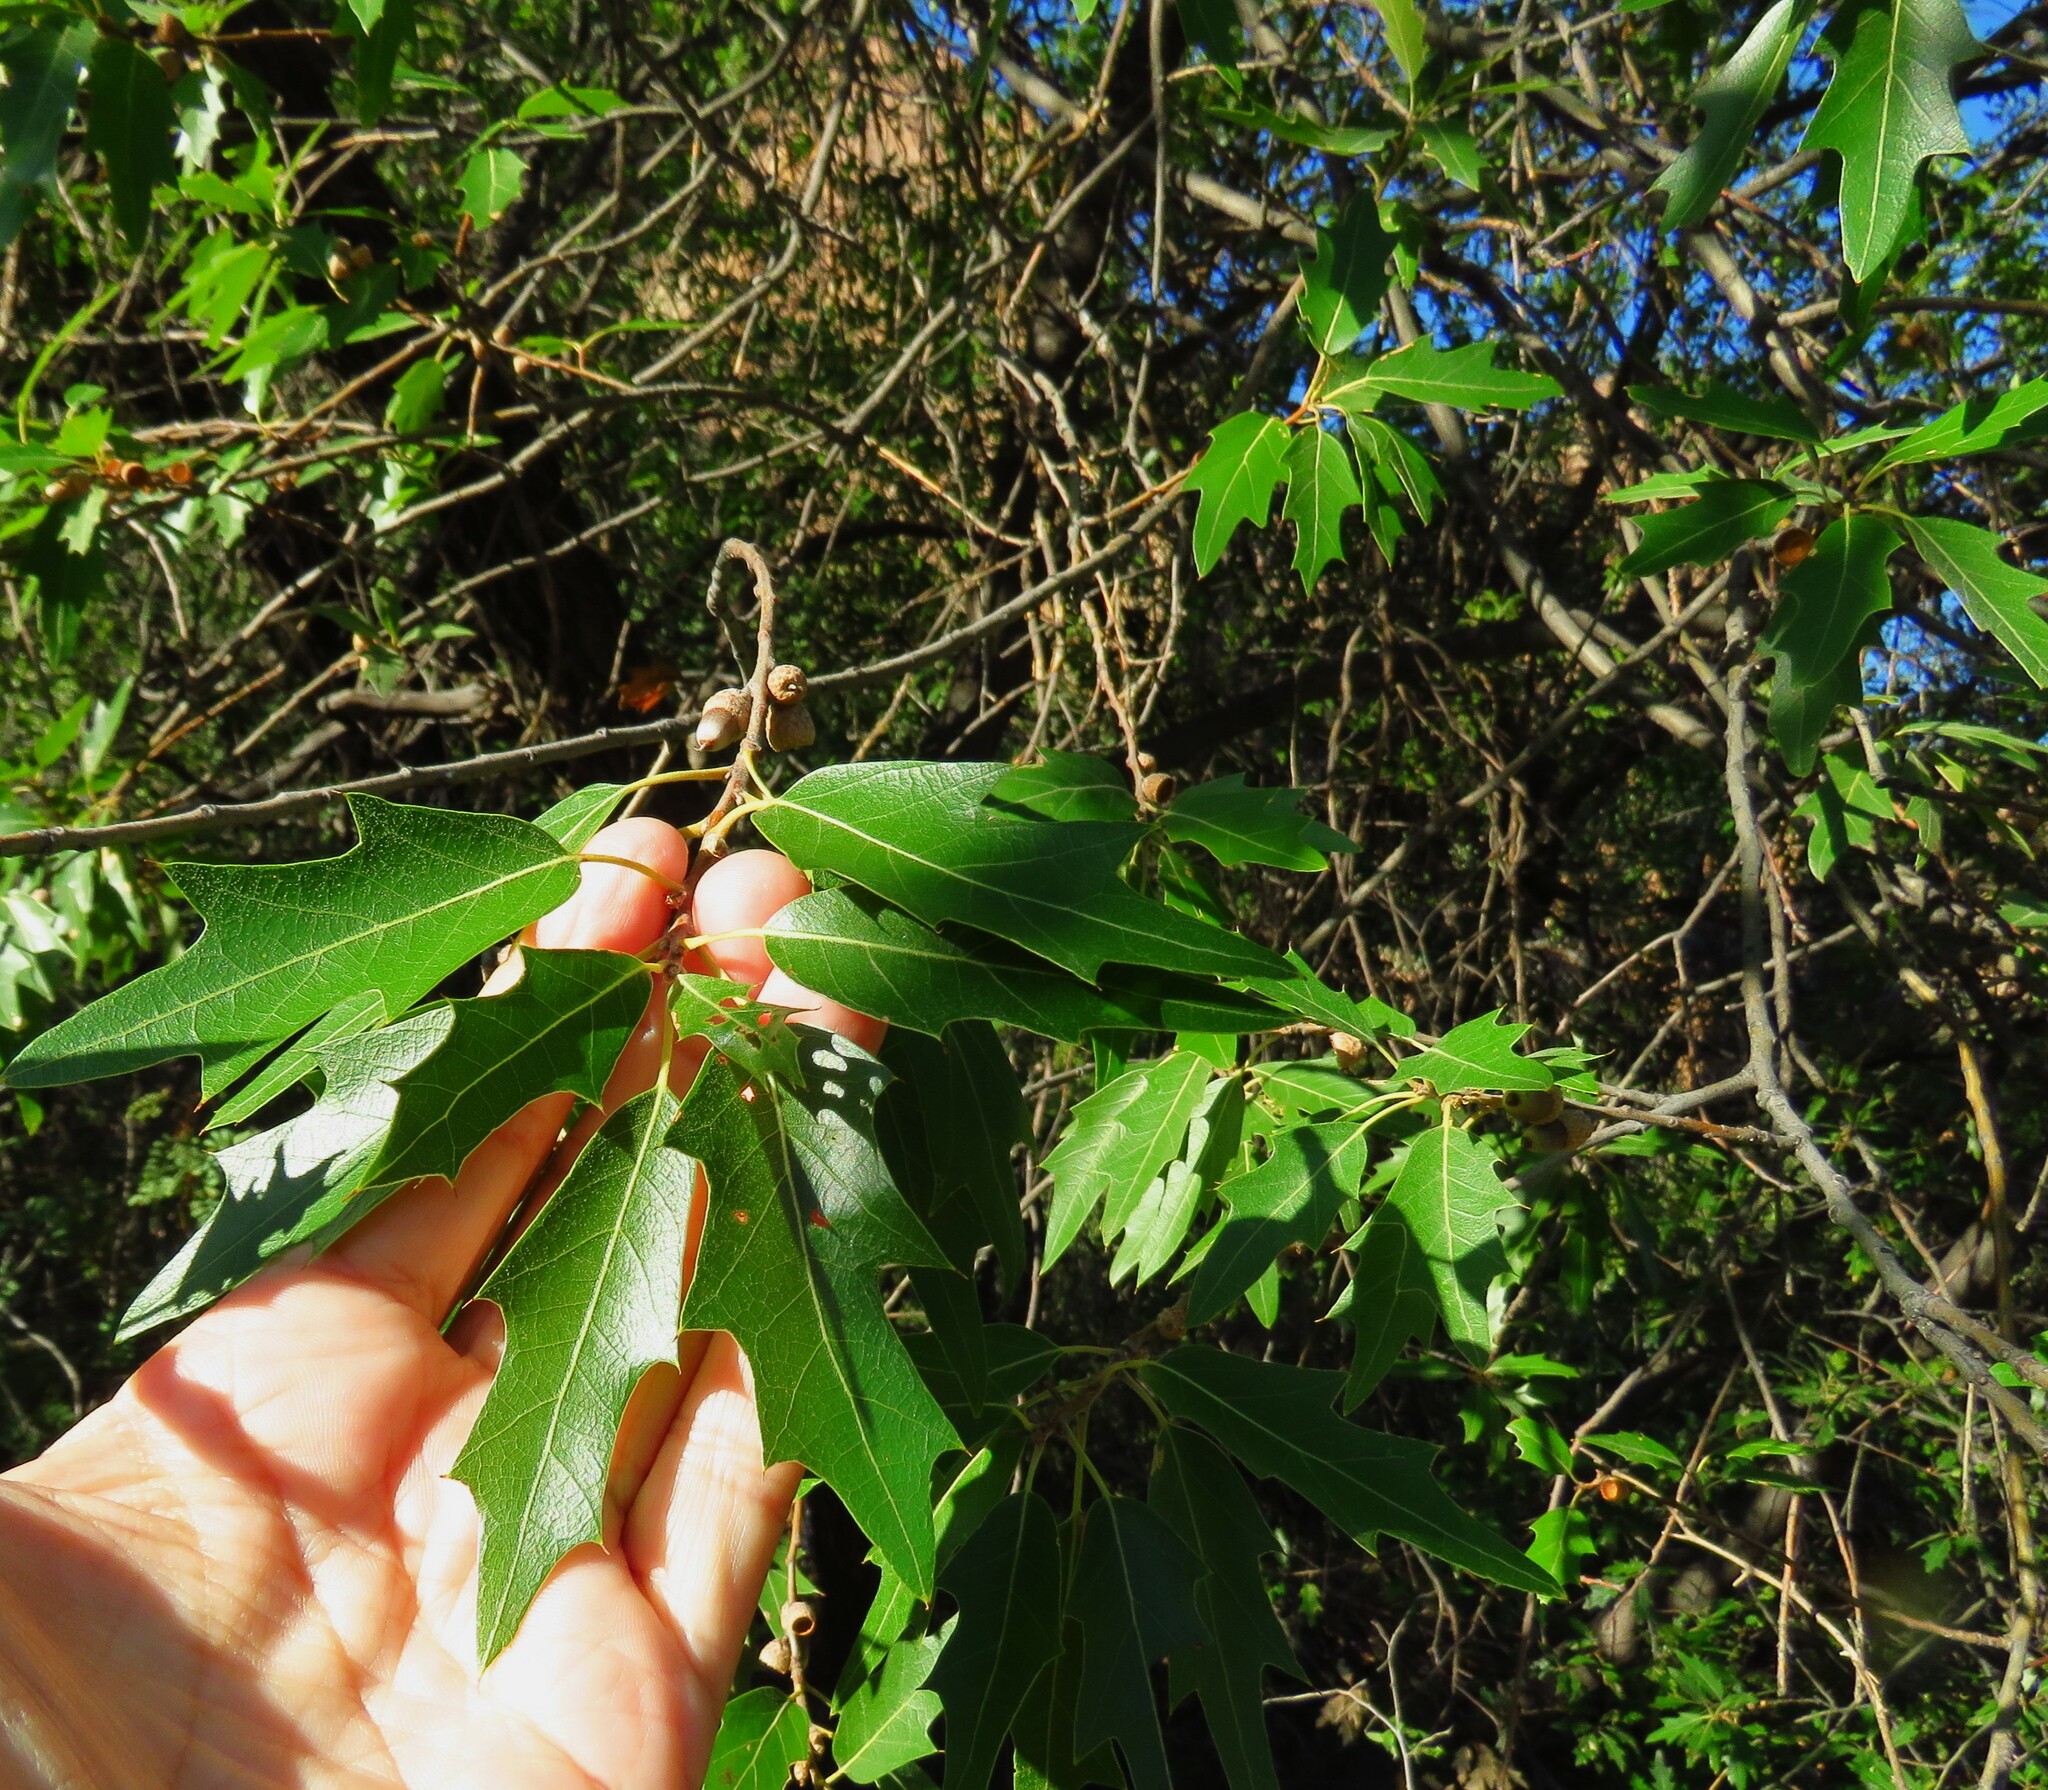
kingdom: Plantae
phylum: Tracheophyta
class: Magnoliopsida
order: Fagales
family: Fagaceae
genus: Quercus
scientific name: Quercus gravesii
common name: Chisos red oak
